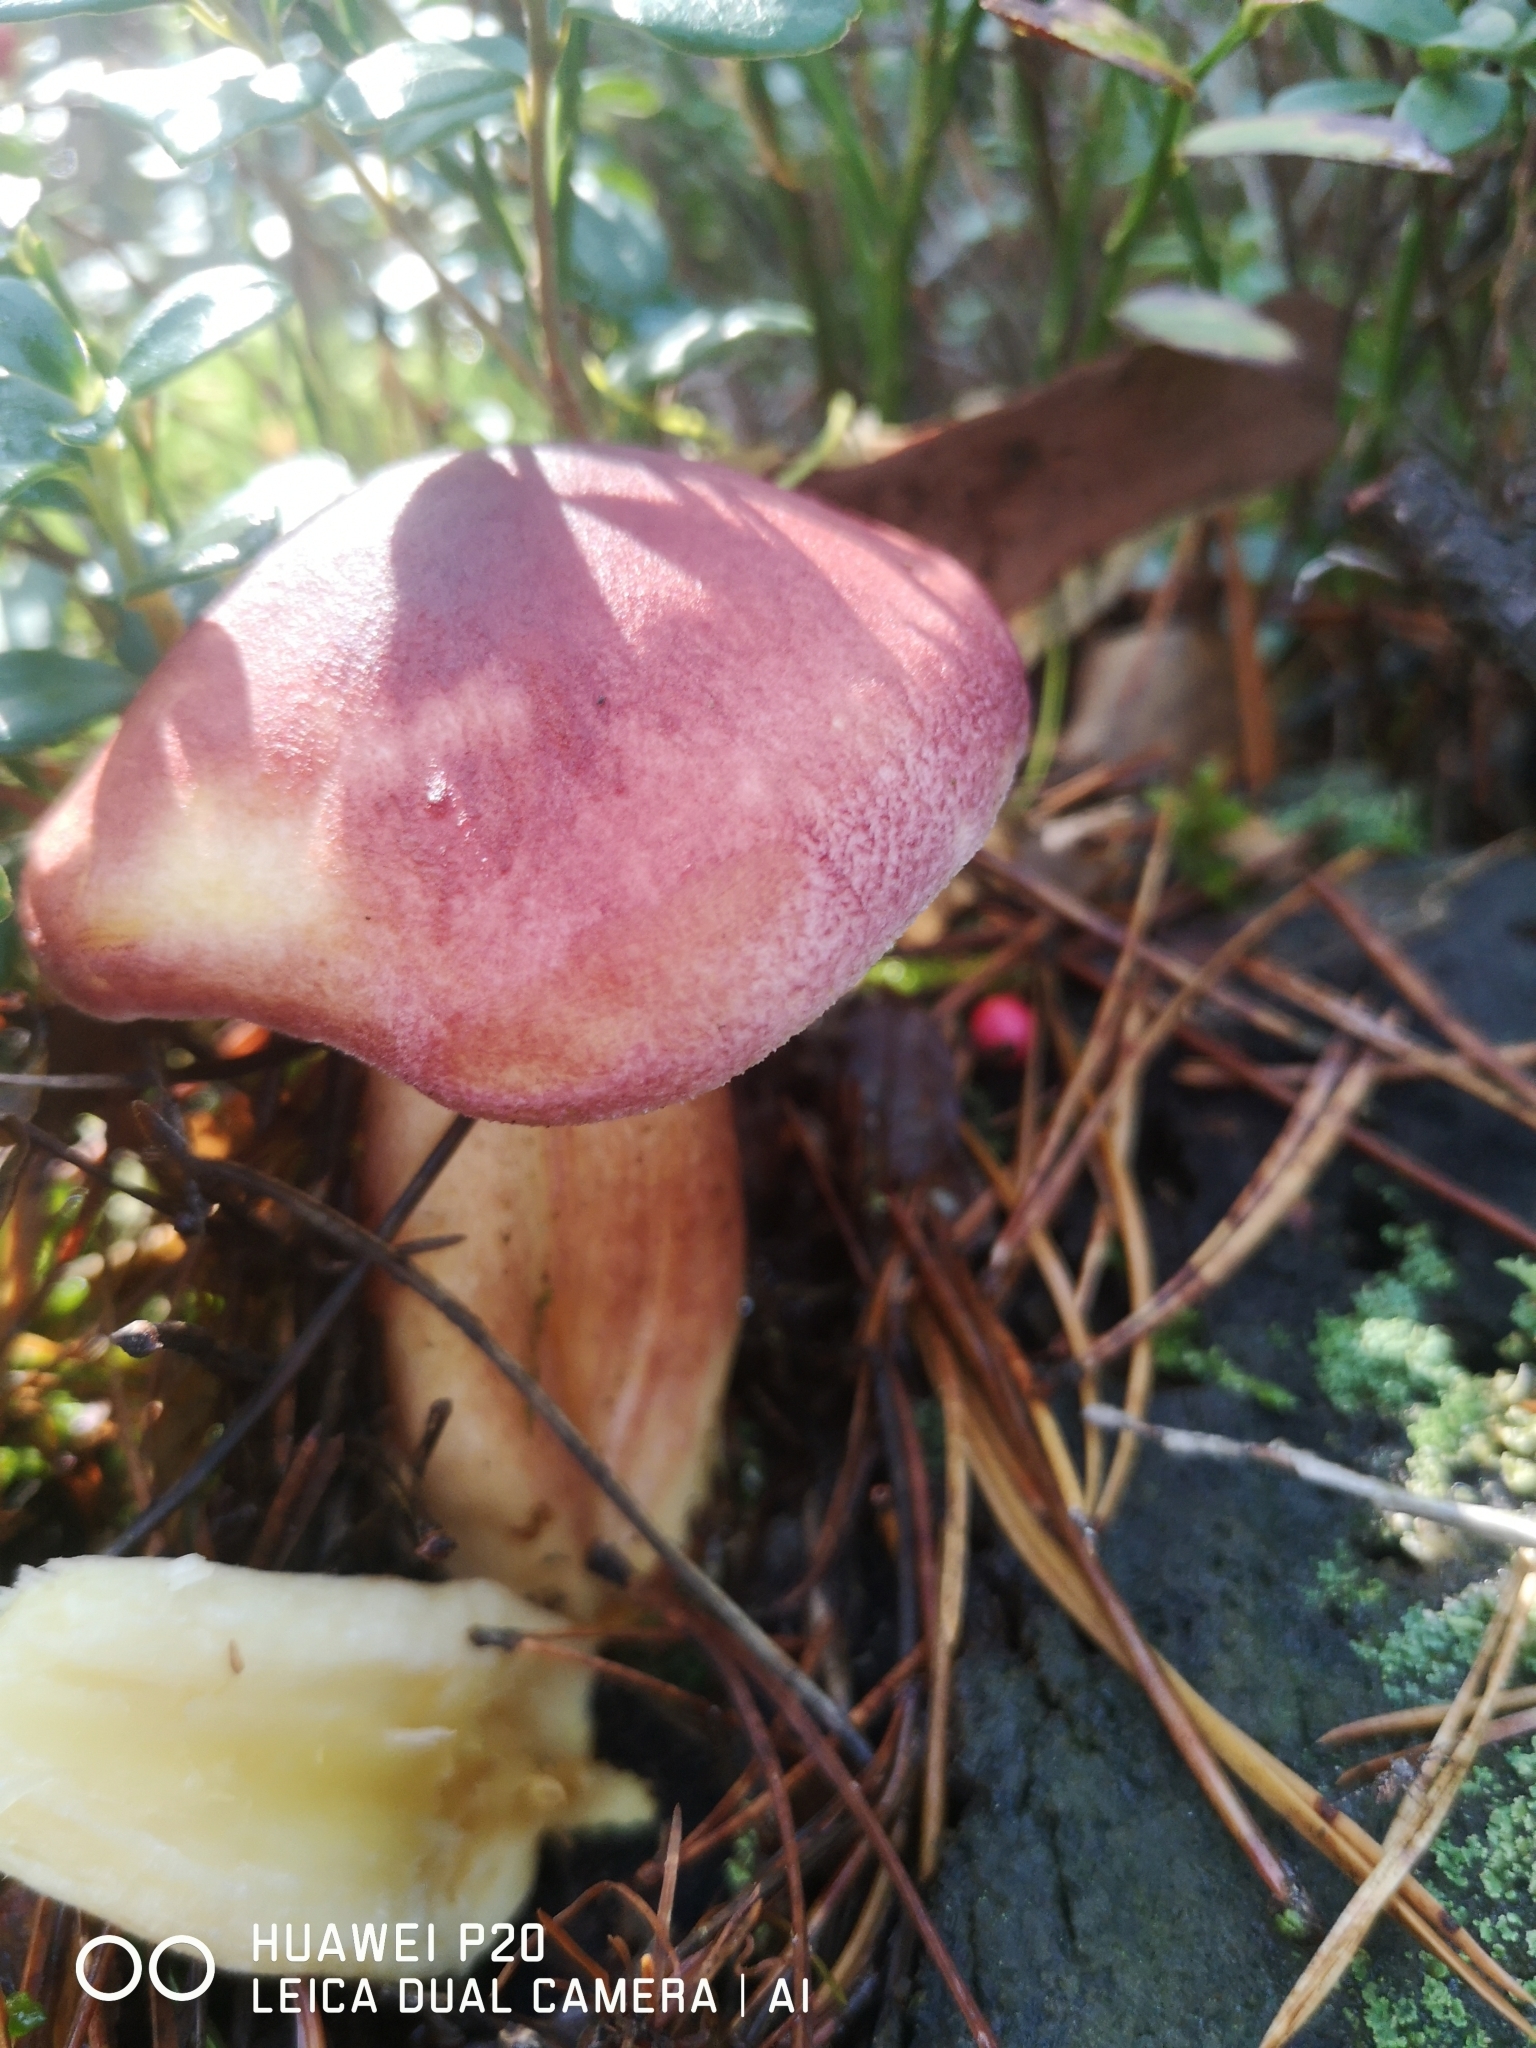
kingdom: Fungi
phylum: Basidiomycota
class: Agaricomycetes
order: Agaricales
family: Tricholomataceae
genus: Tricholomopsis
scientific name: Tricholomopsis rutilans
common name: Plums and custard
